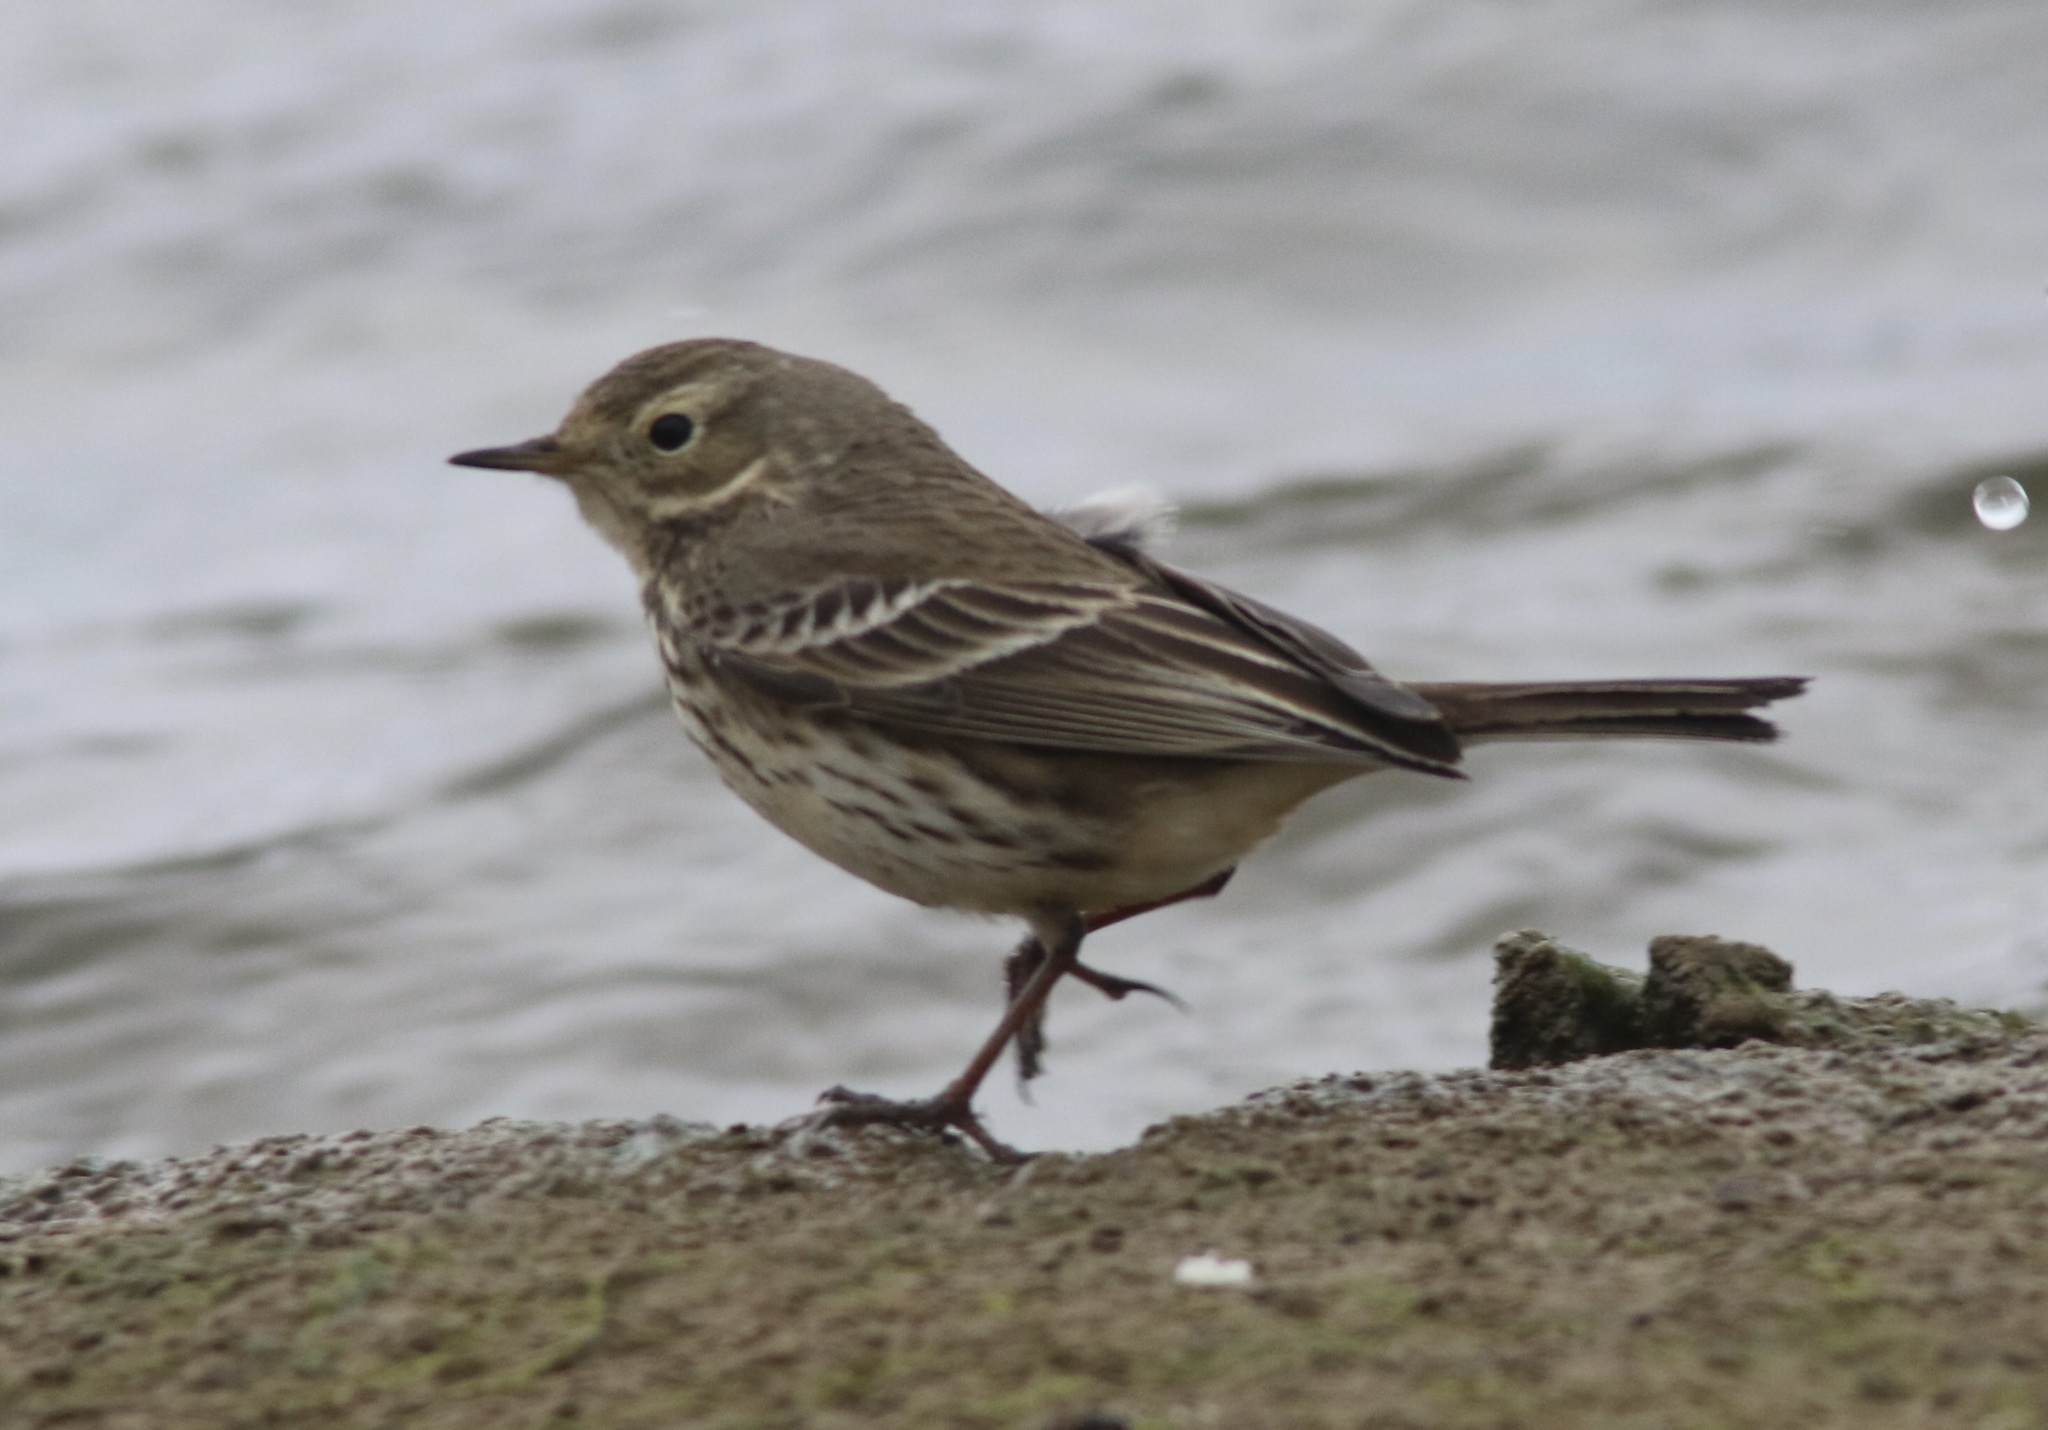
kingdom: Animalia
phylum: Chordata
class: Aves
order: Passeriformes
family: Motacillidae
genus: Anthus
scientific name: Anthus rubescens
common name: Buff-bellied pipit
